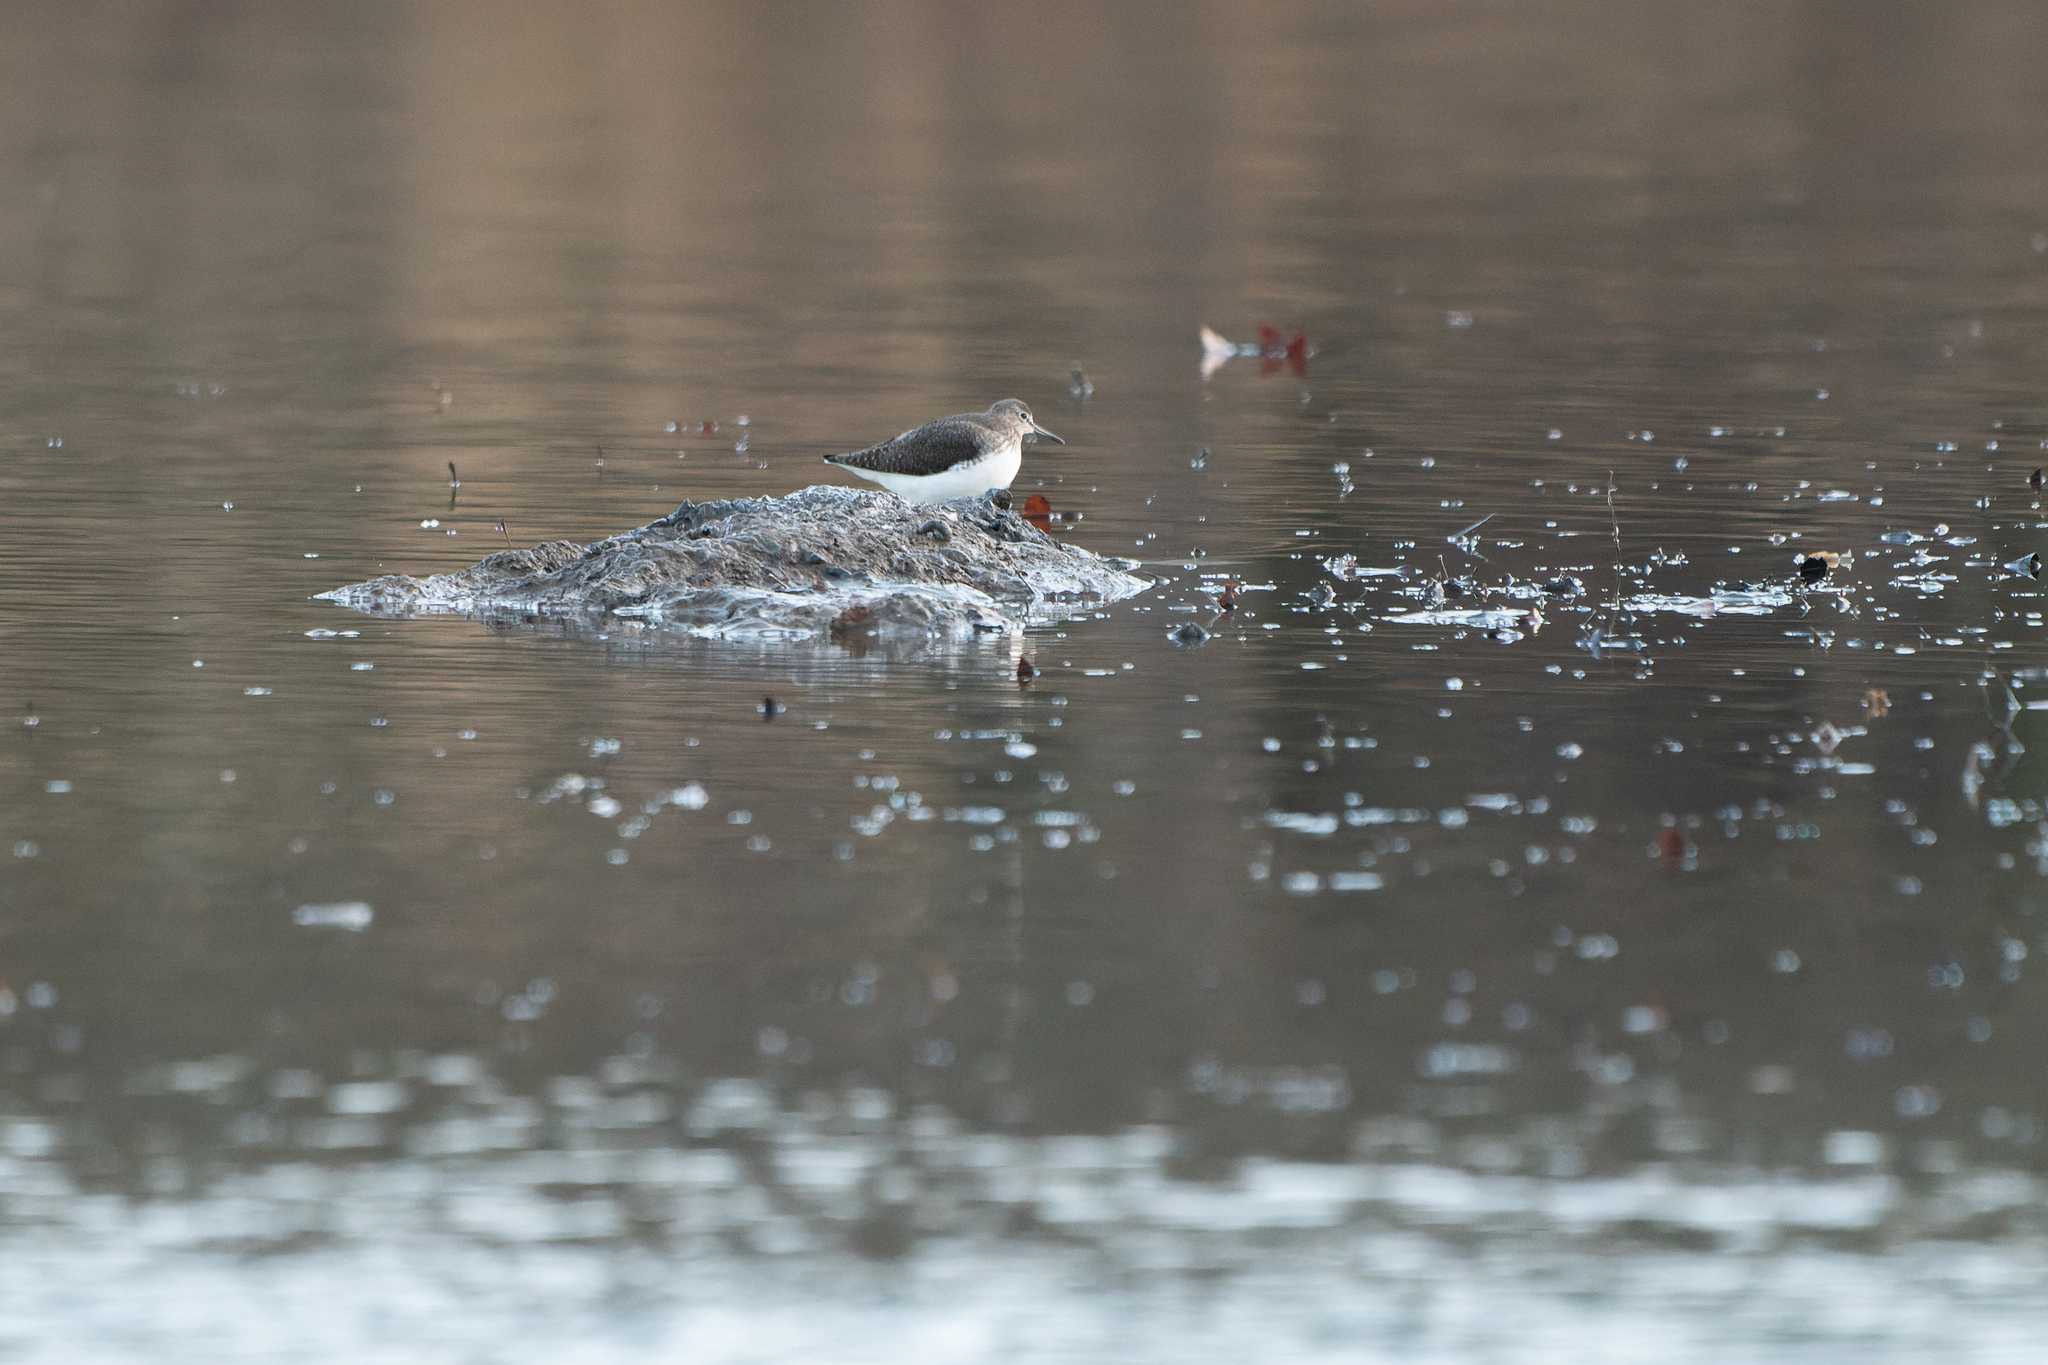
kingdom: Animalia
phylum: Chordata
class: Aves
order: Charadriiformes
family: Scolopacidae
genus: Tringa
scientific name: Tringa ochropus
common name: Green sandpiper
